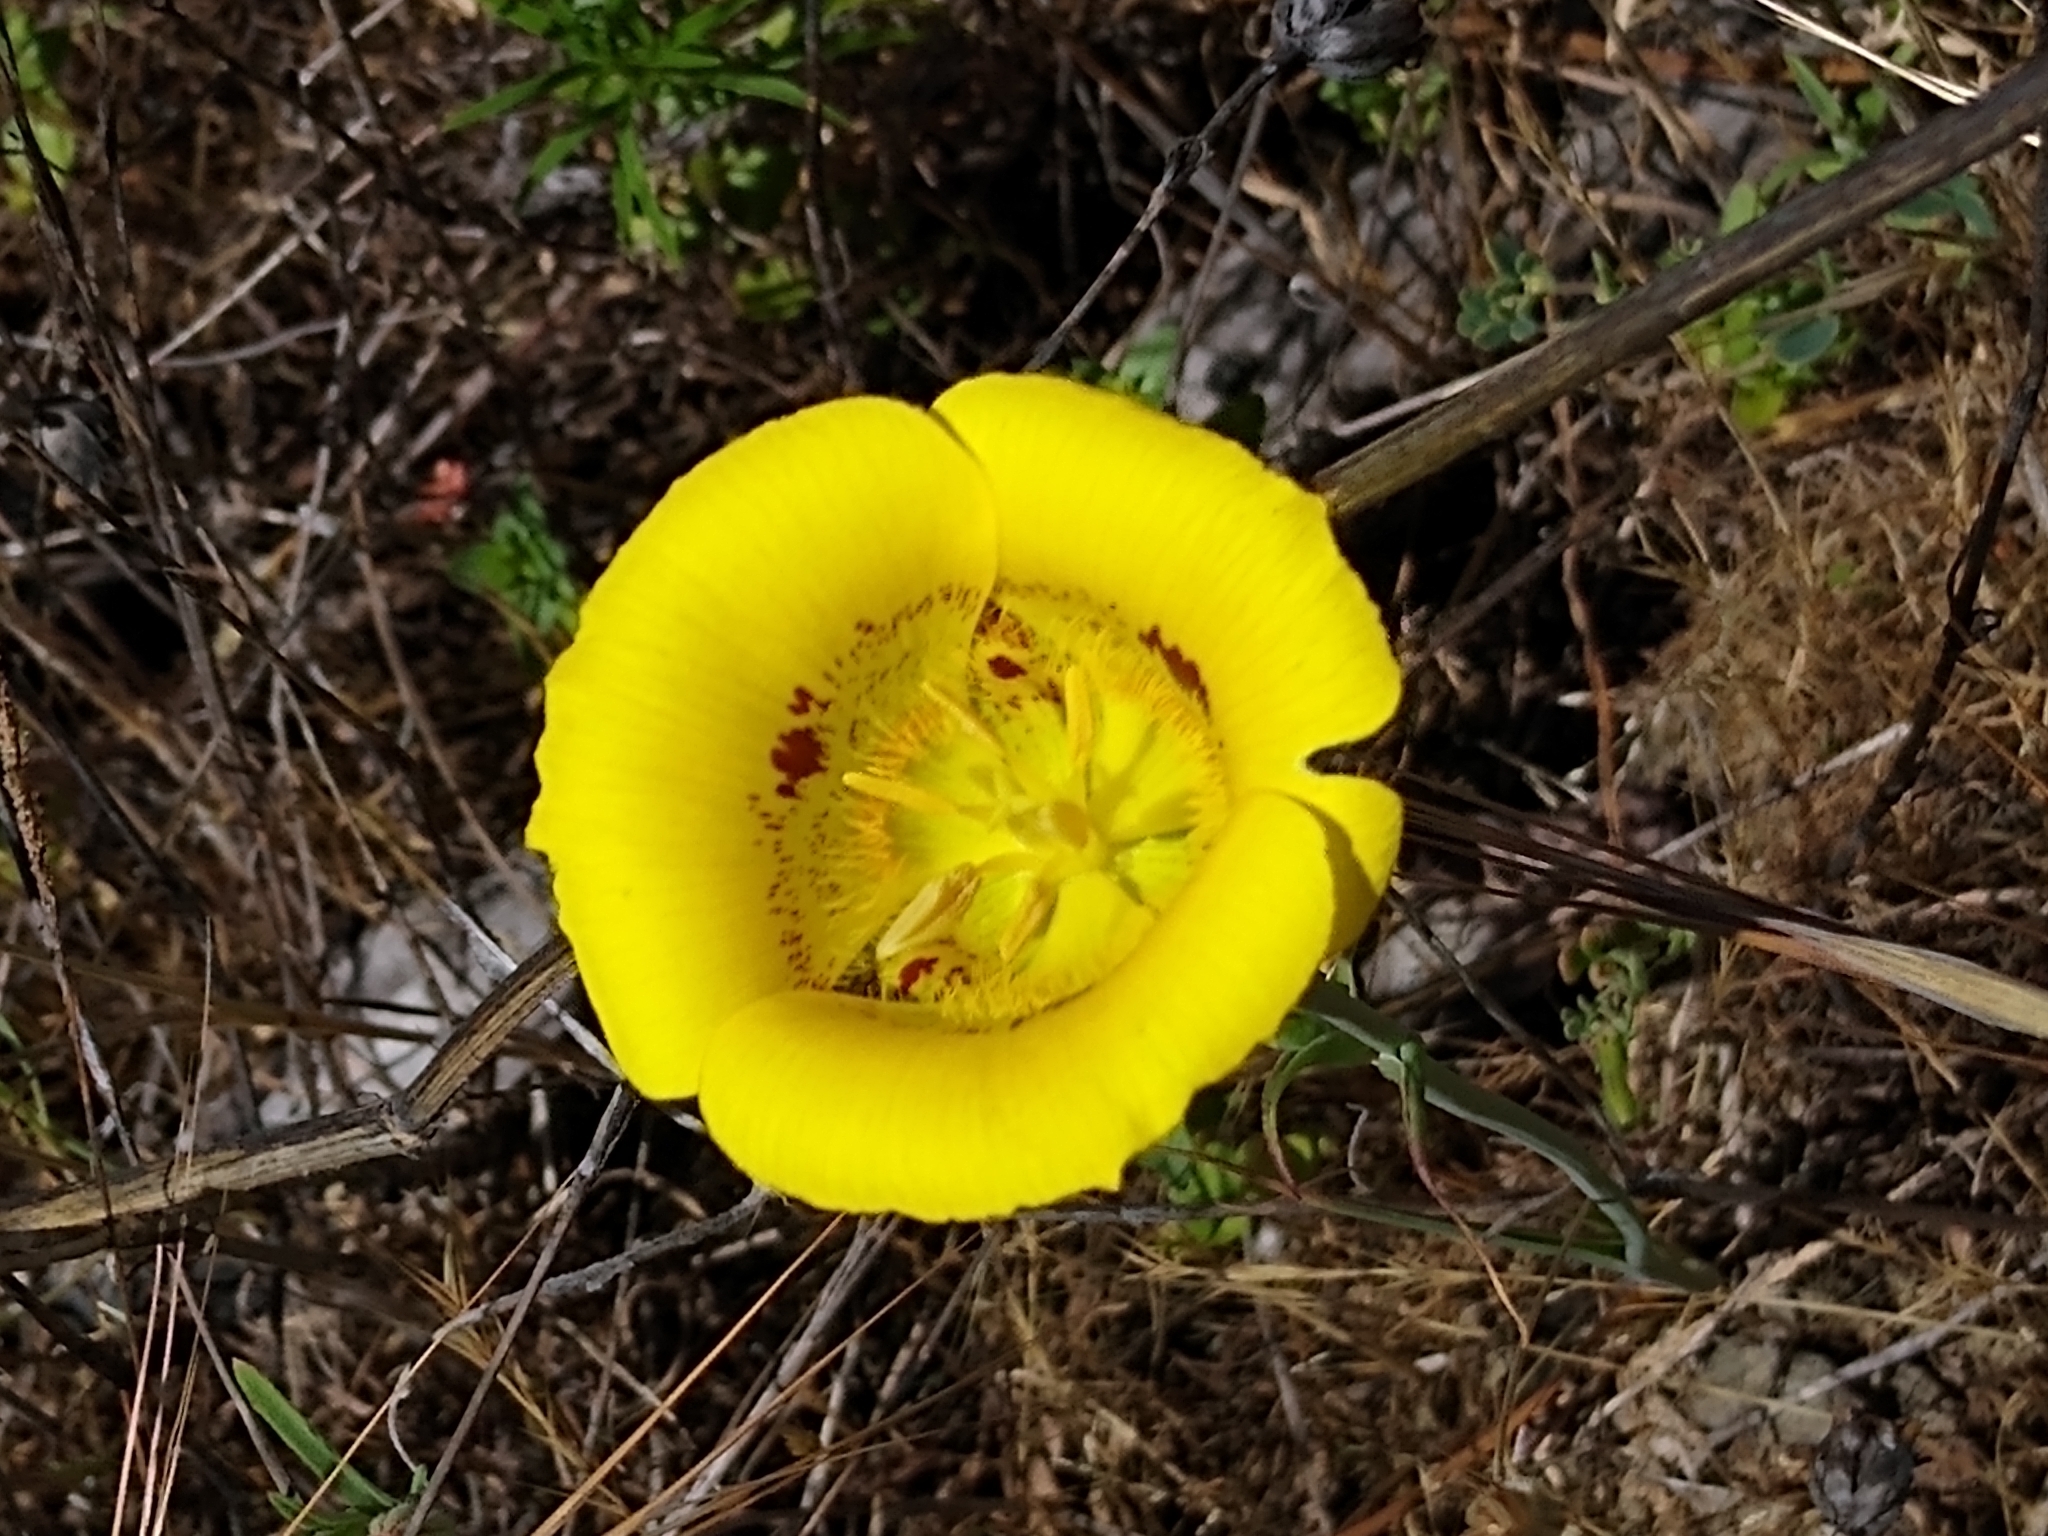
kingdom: Plantae
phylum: Tracheophyta
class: Liliopsida
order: Liliales
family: Liliaceae
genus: Calochortus
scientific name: Calochortus luteus
